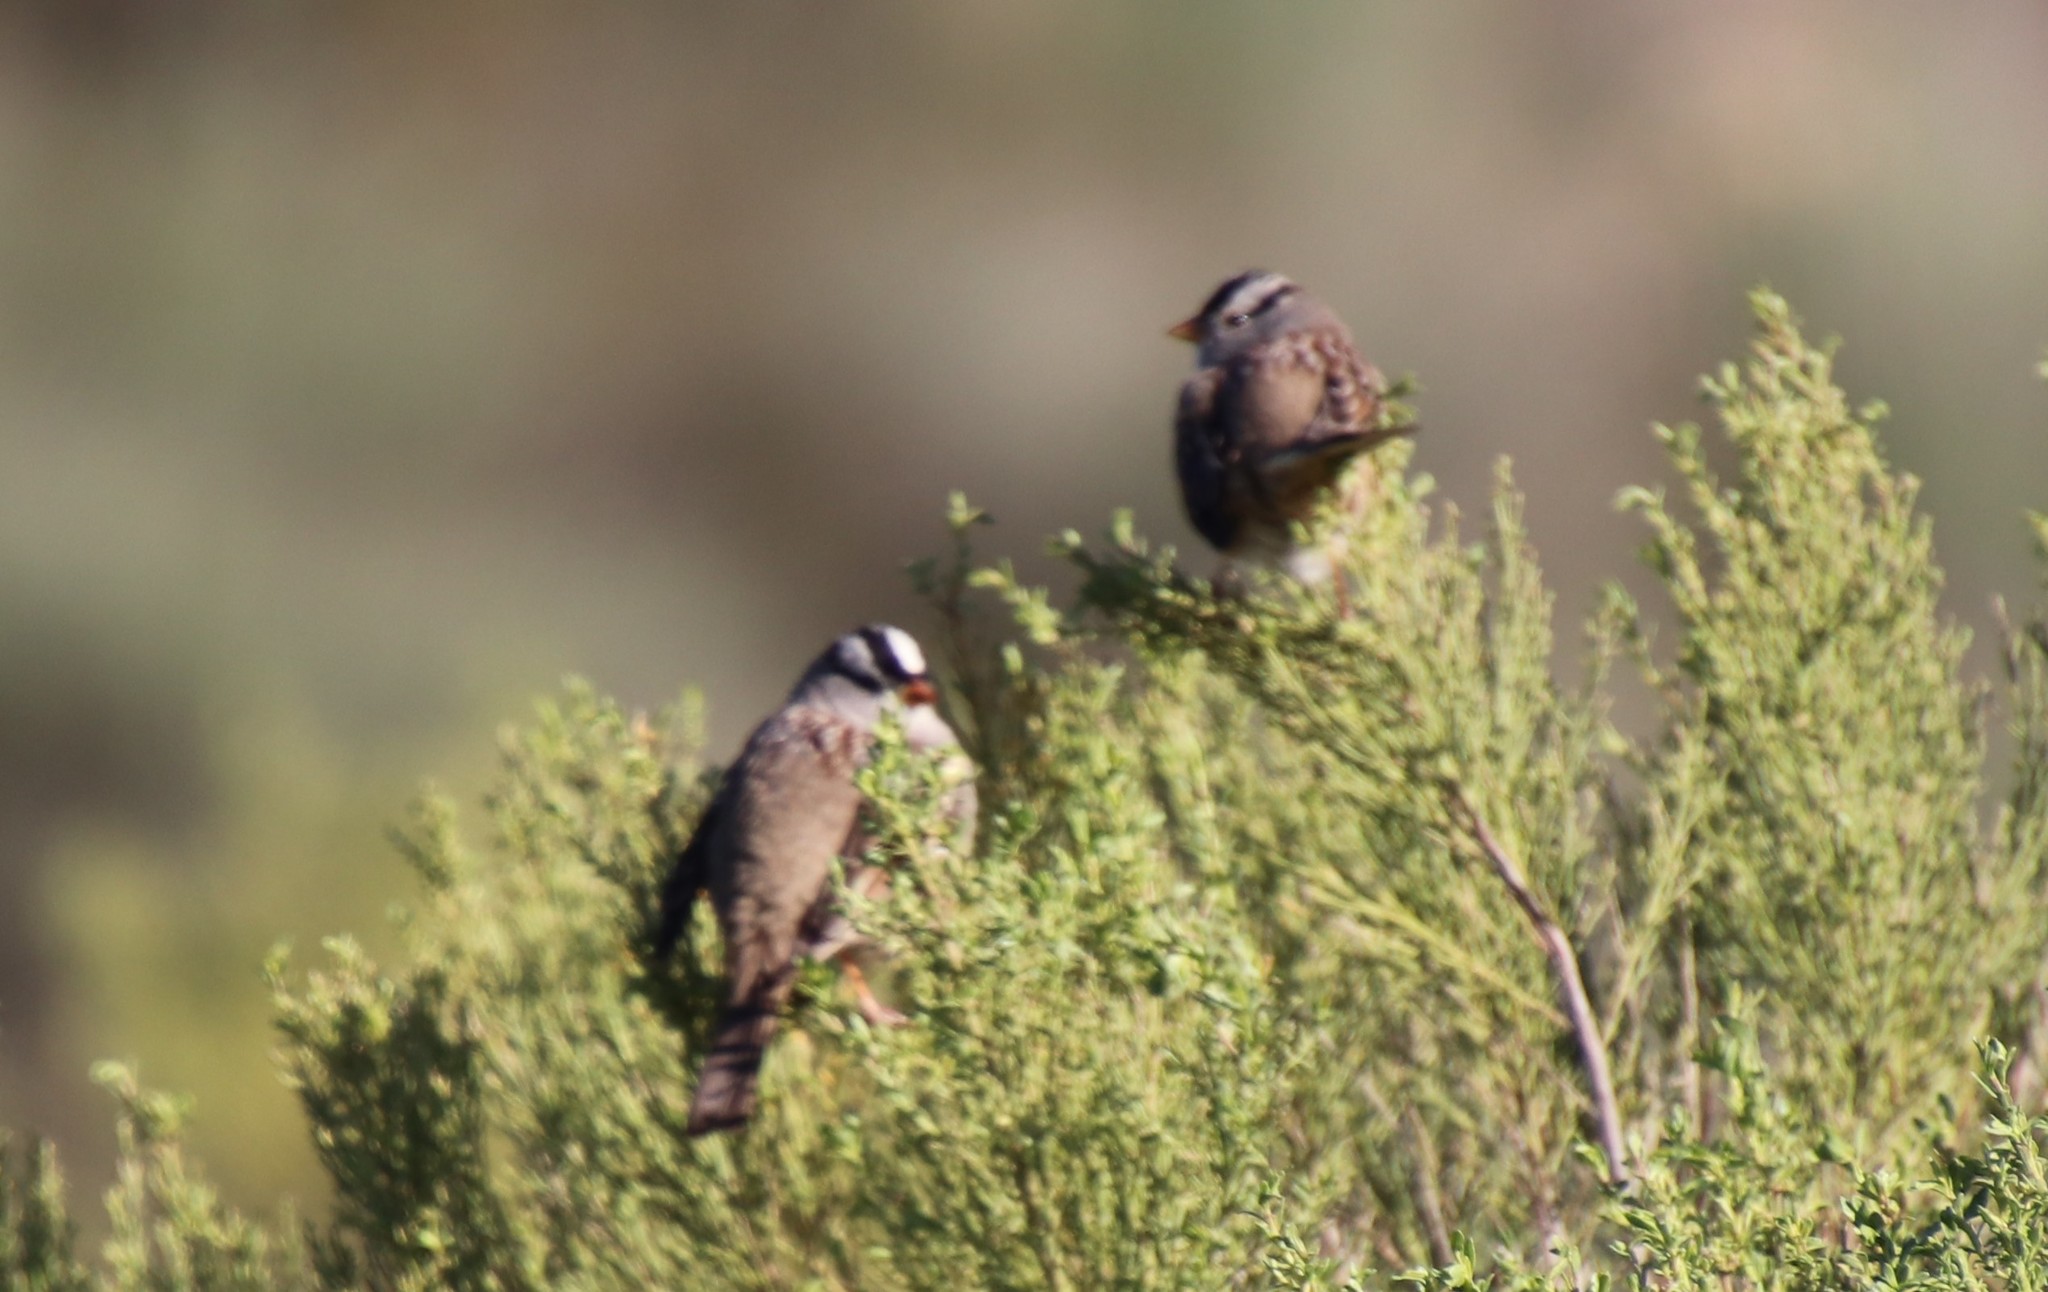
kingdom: Animalia
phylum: Chordata
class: Aves
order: Passeriformes
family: Passerellidae
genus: Zonotrichia
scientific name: Zonotrichia leucophrys
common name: White-crowned sparrow
